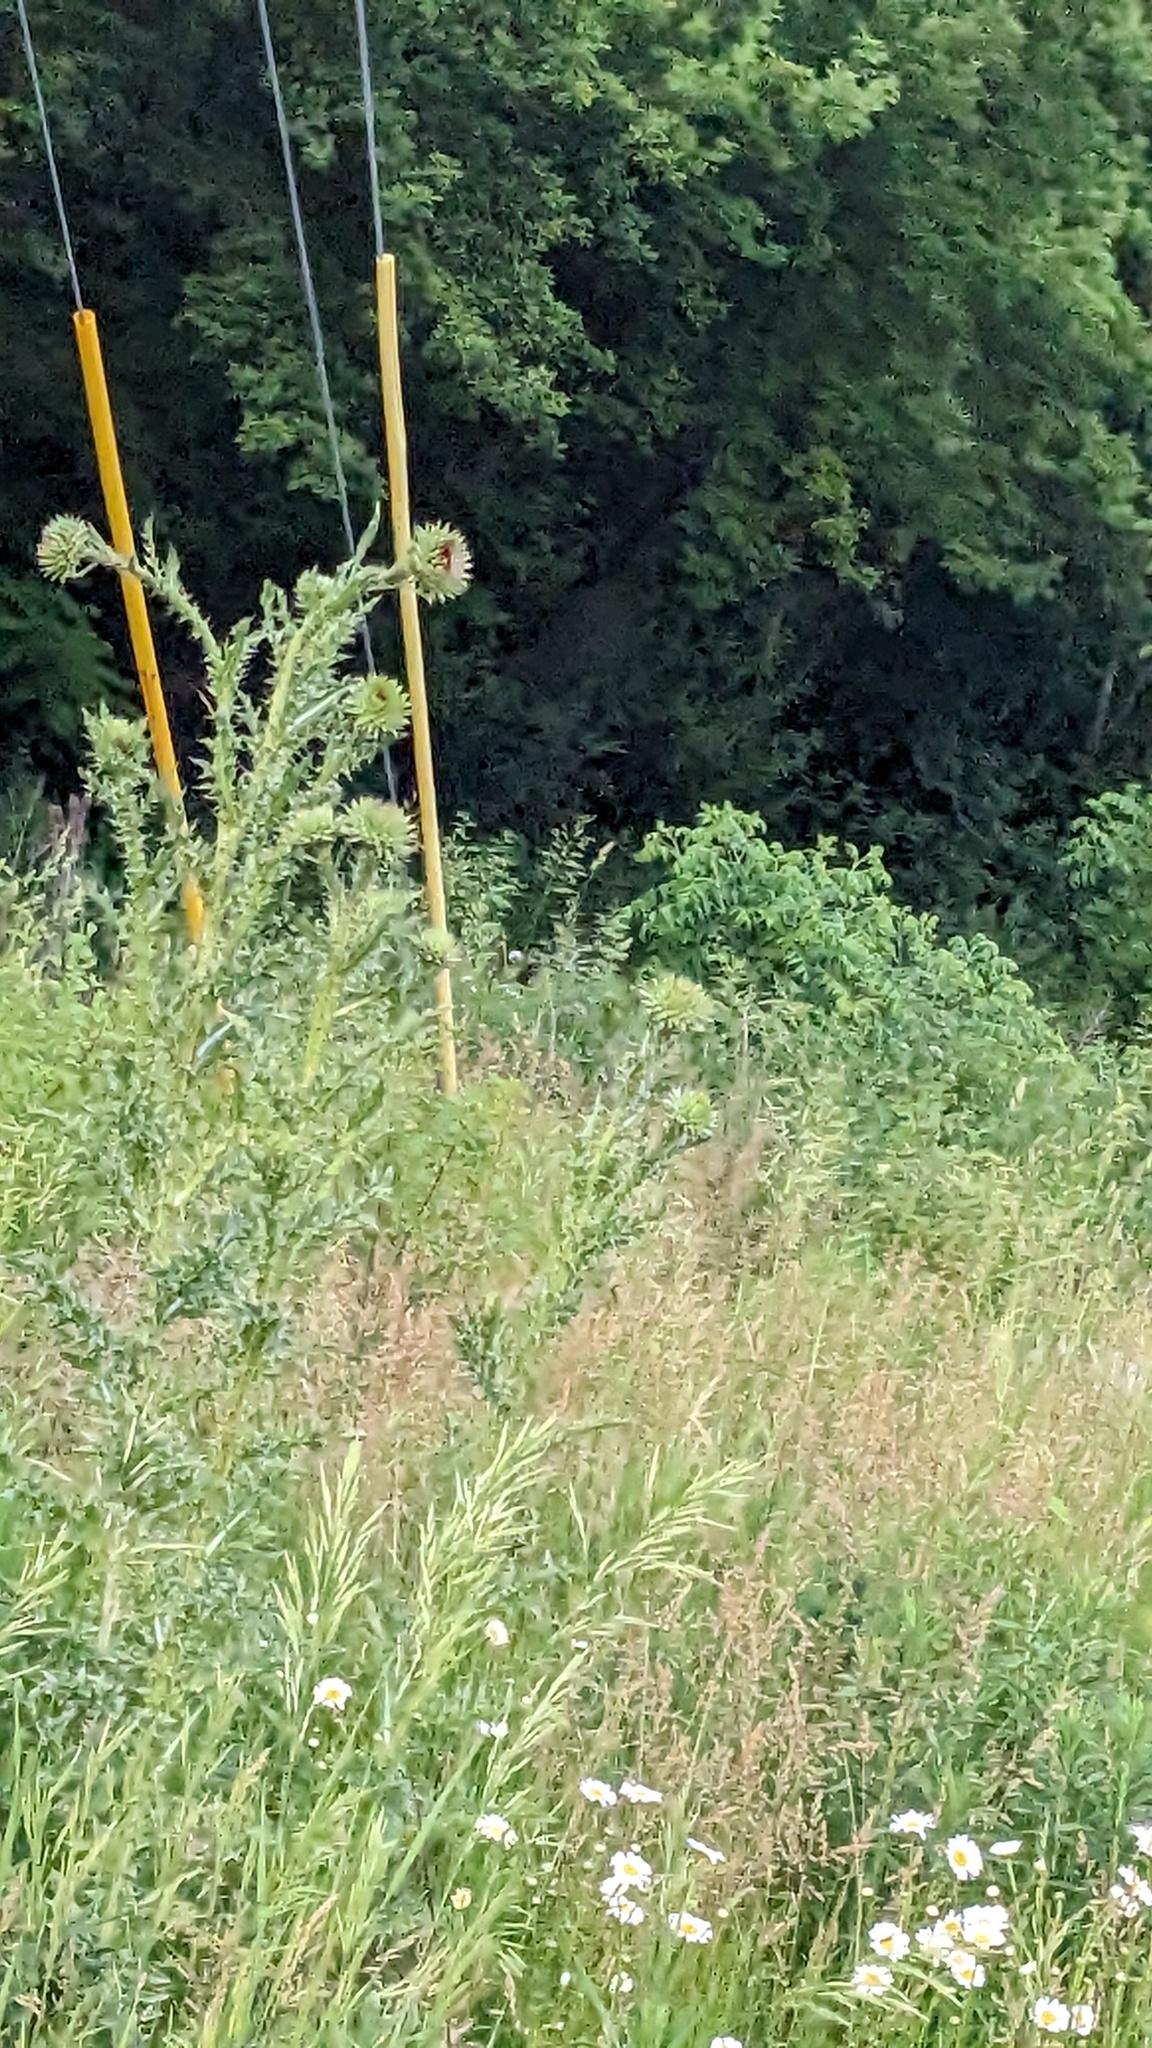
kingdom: Plantae
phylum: Tracheophyta
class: Magnoliopsida
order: Asterales
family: Asteraceae
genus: Carduus
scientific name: Carduus nutans
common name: Musk thistle
